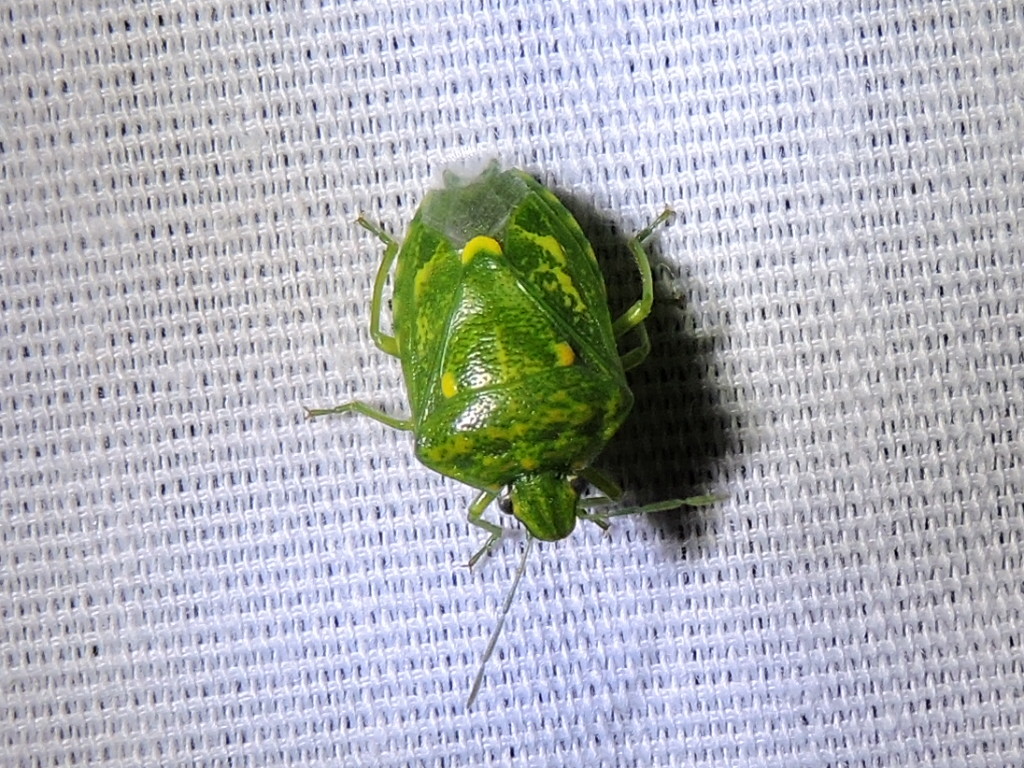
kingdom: Animalia
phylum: Arthropoda
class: Insecta
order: Hemiptera
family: Pentatomidae
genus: Banasa
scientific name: Banasa euchlora
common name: Cedar berry bug
